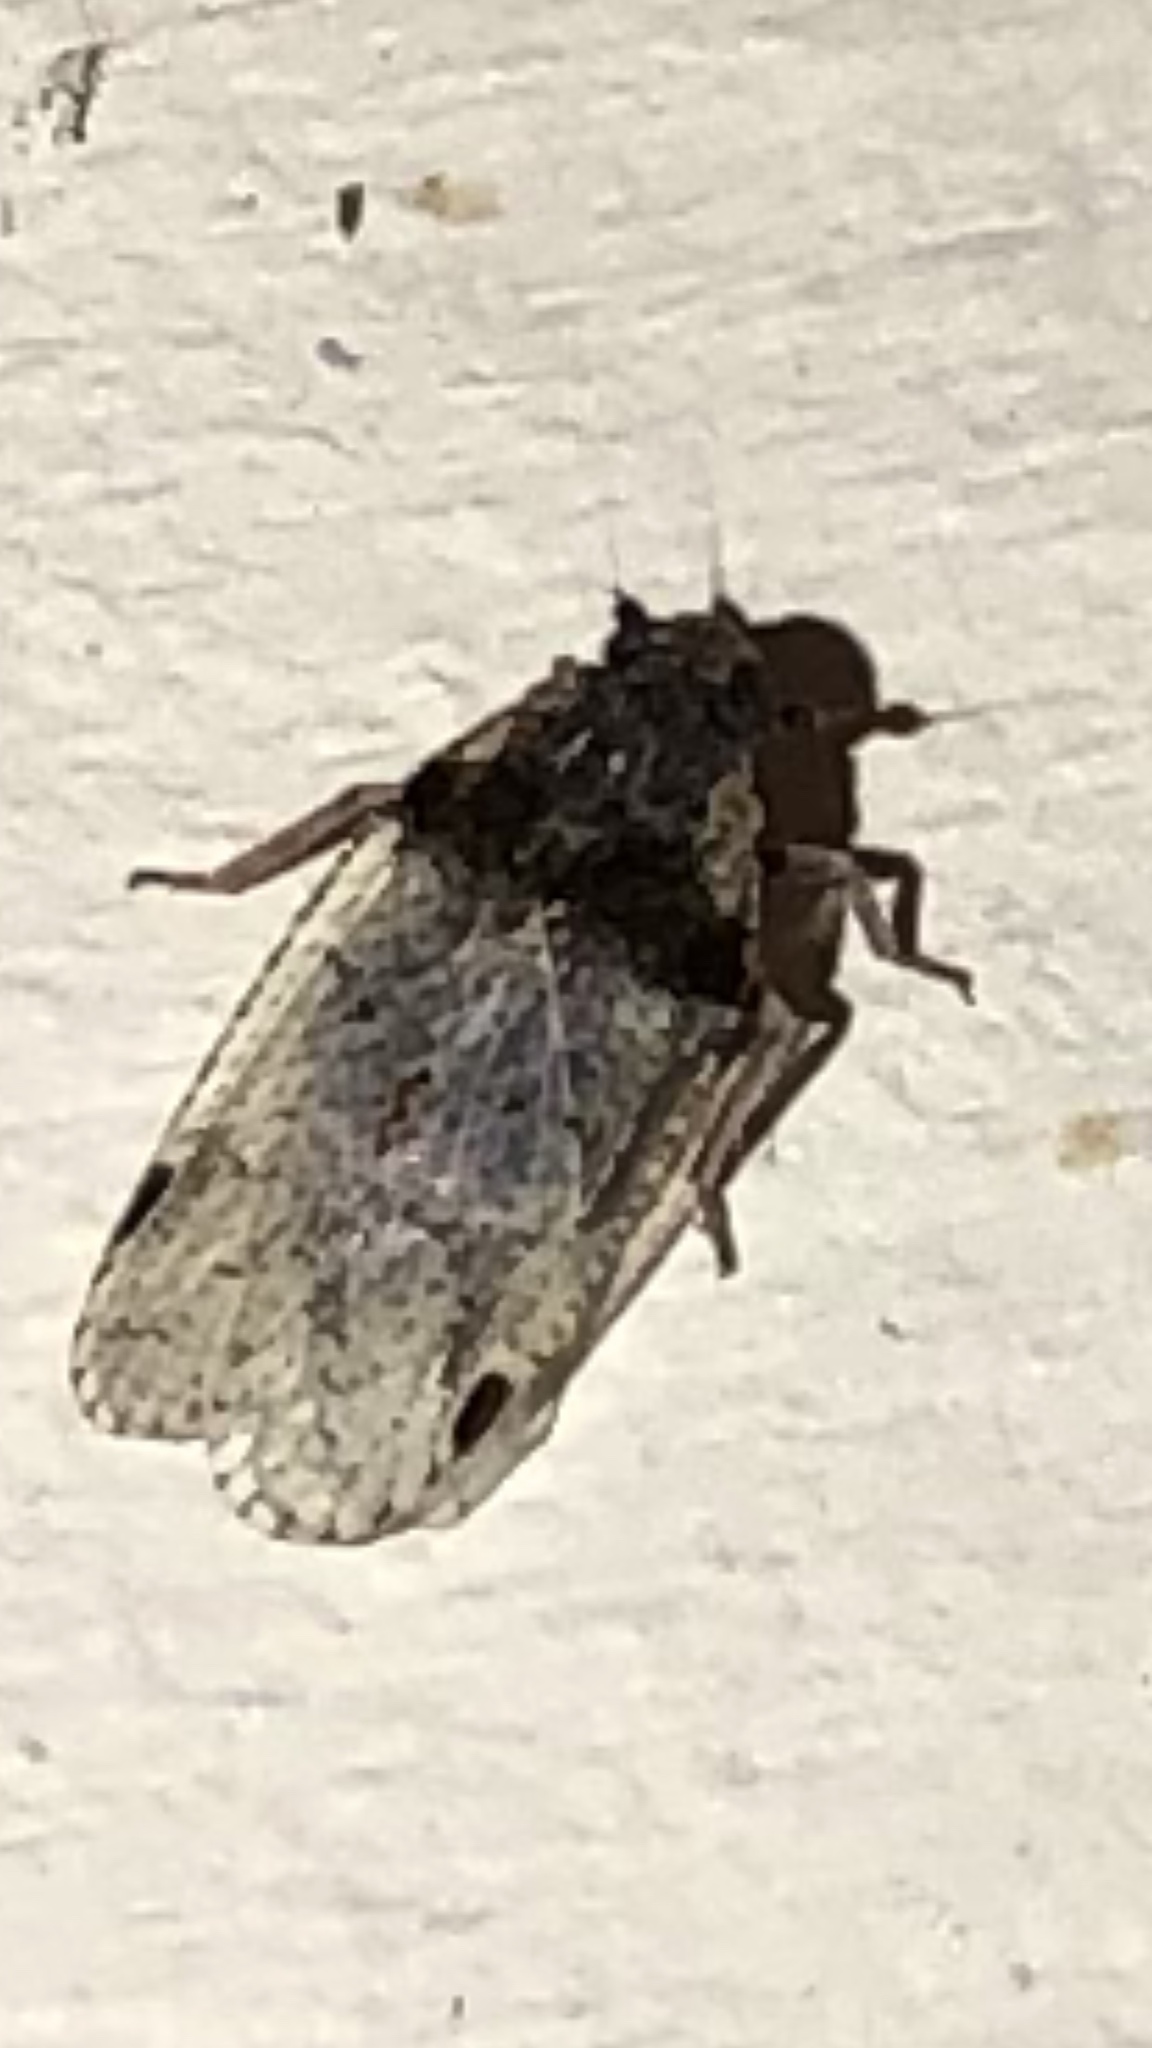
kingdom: Animalia
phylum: Arthropoda
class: Insecta
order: Hemiptera
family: Cixiidae
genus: Cixius
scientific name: Cixius stigmatus
